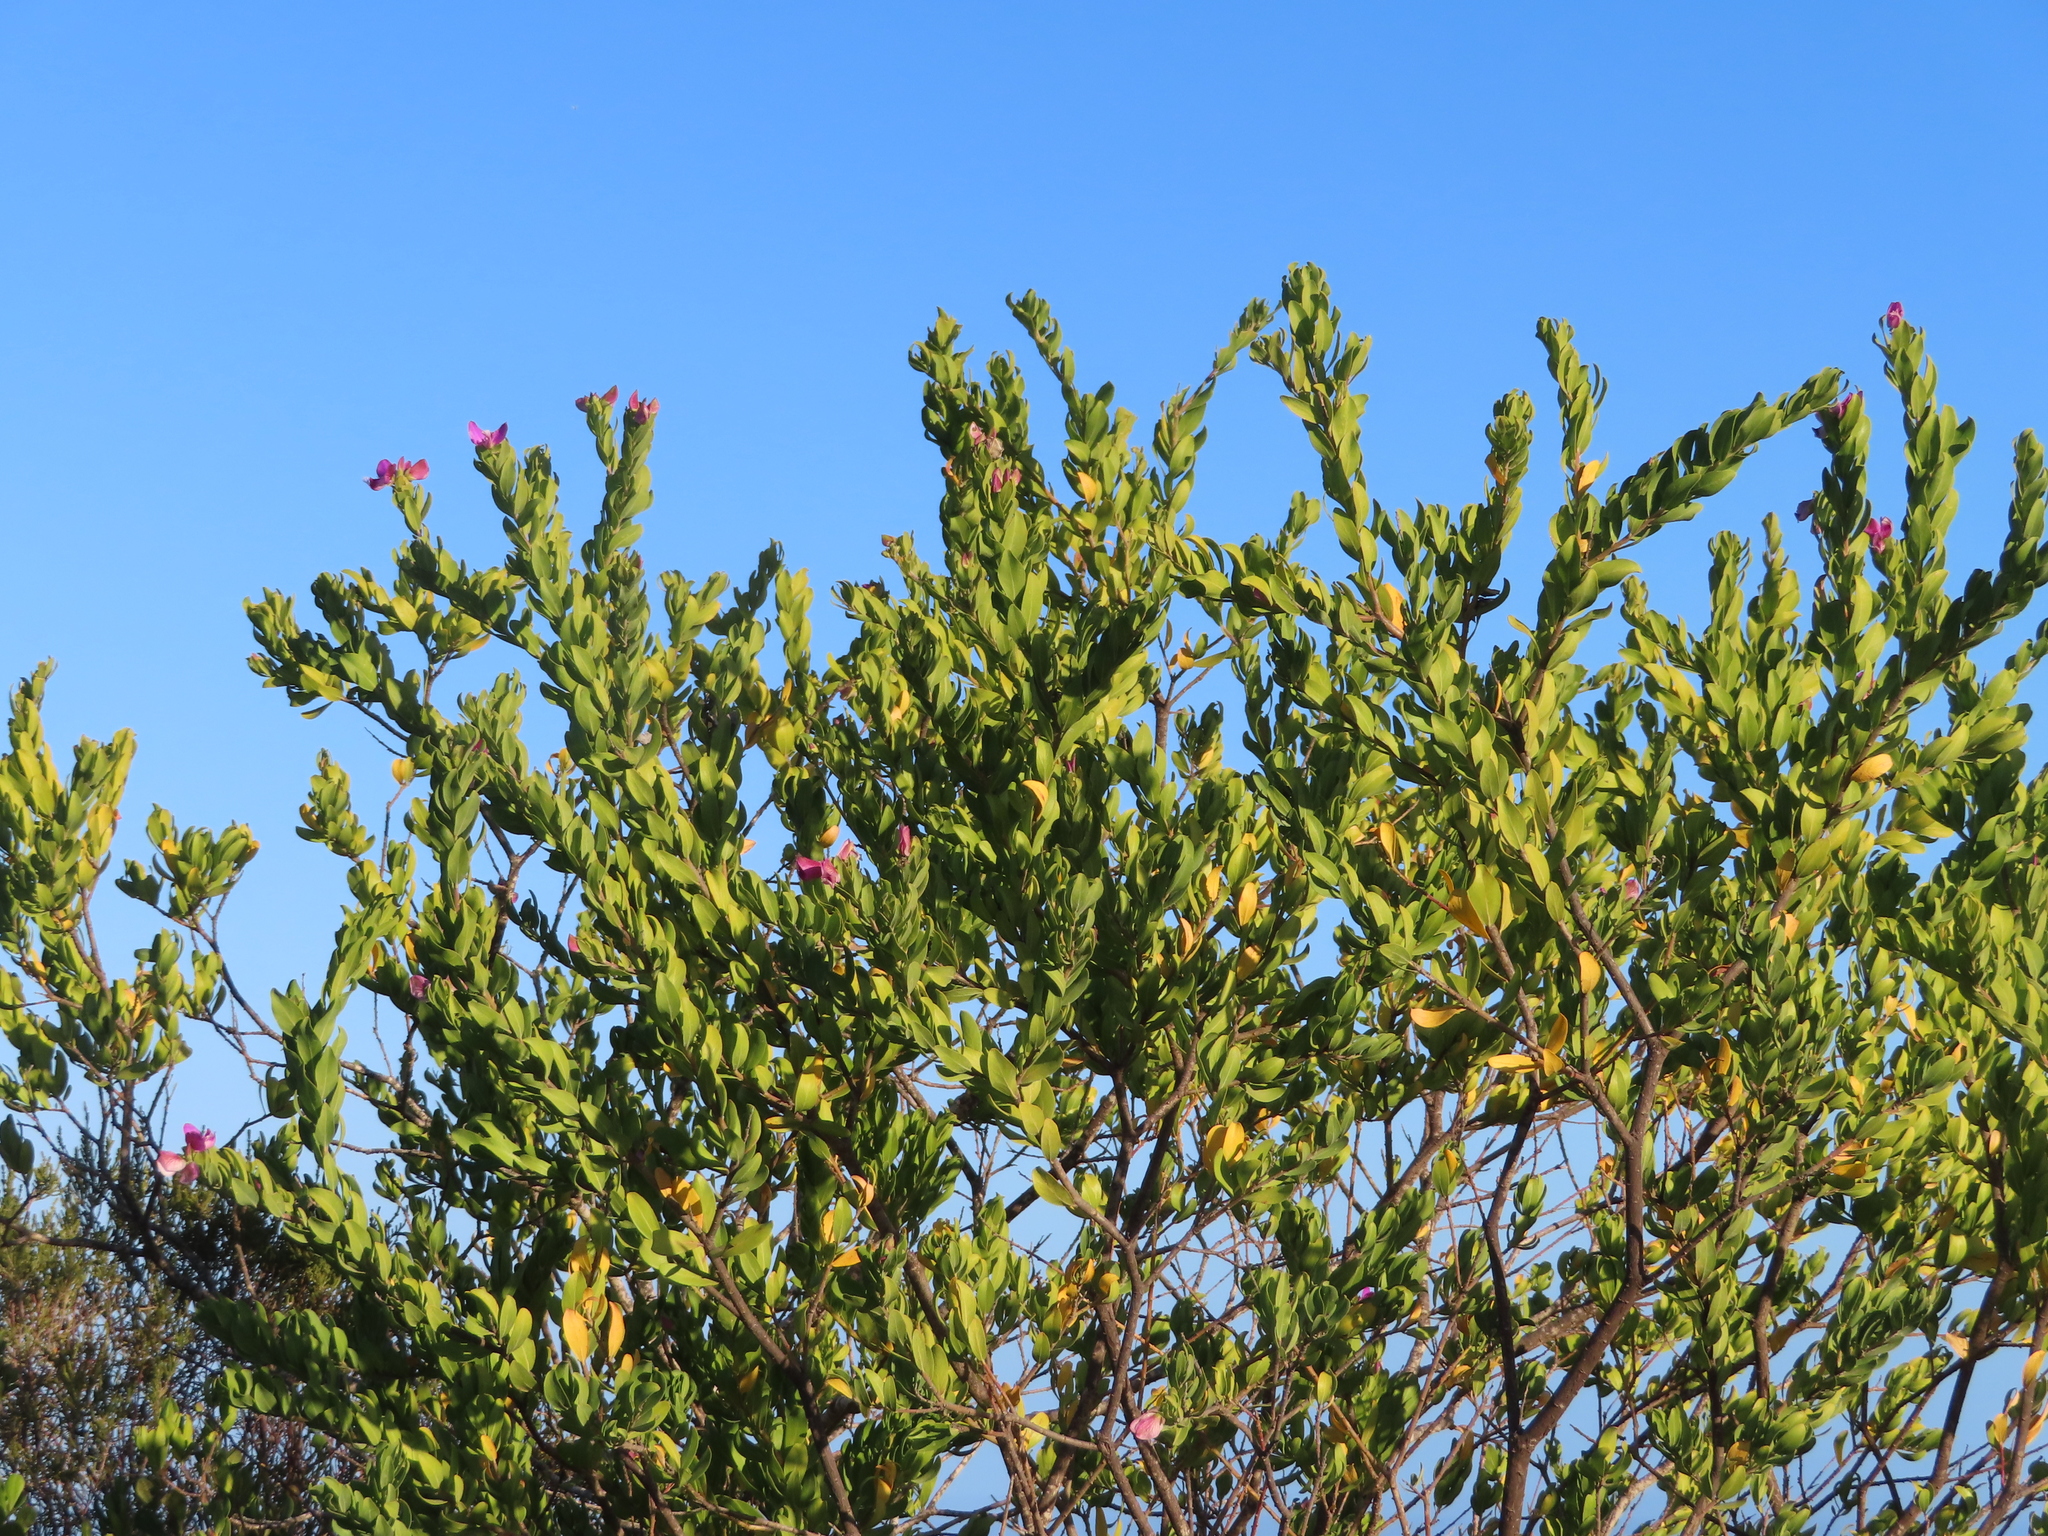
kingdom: Plantae
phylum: Tracheophyta
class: Magnoliopsida
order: Fabales
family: Polygalaceae
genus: Polygala
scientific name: Polygala myrtifolia
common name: Myrtle-leaf milkwort
